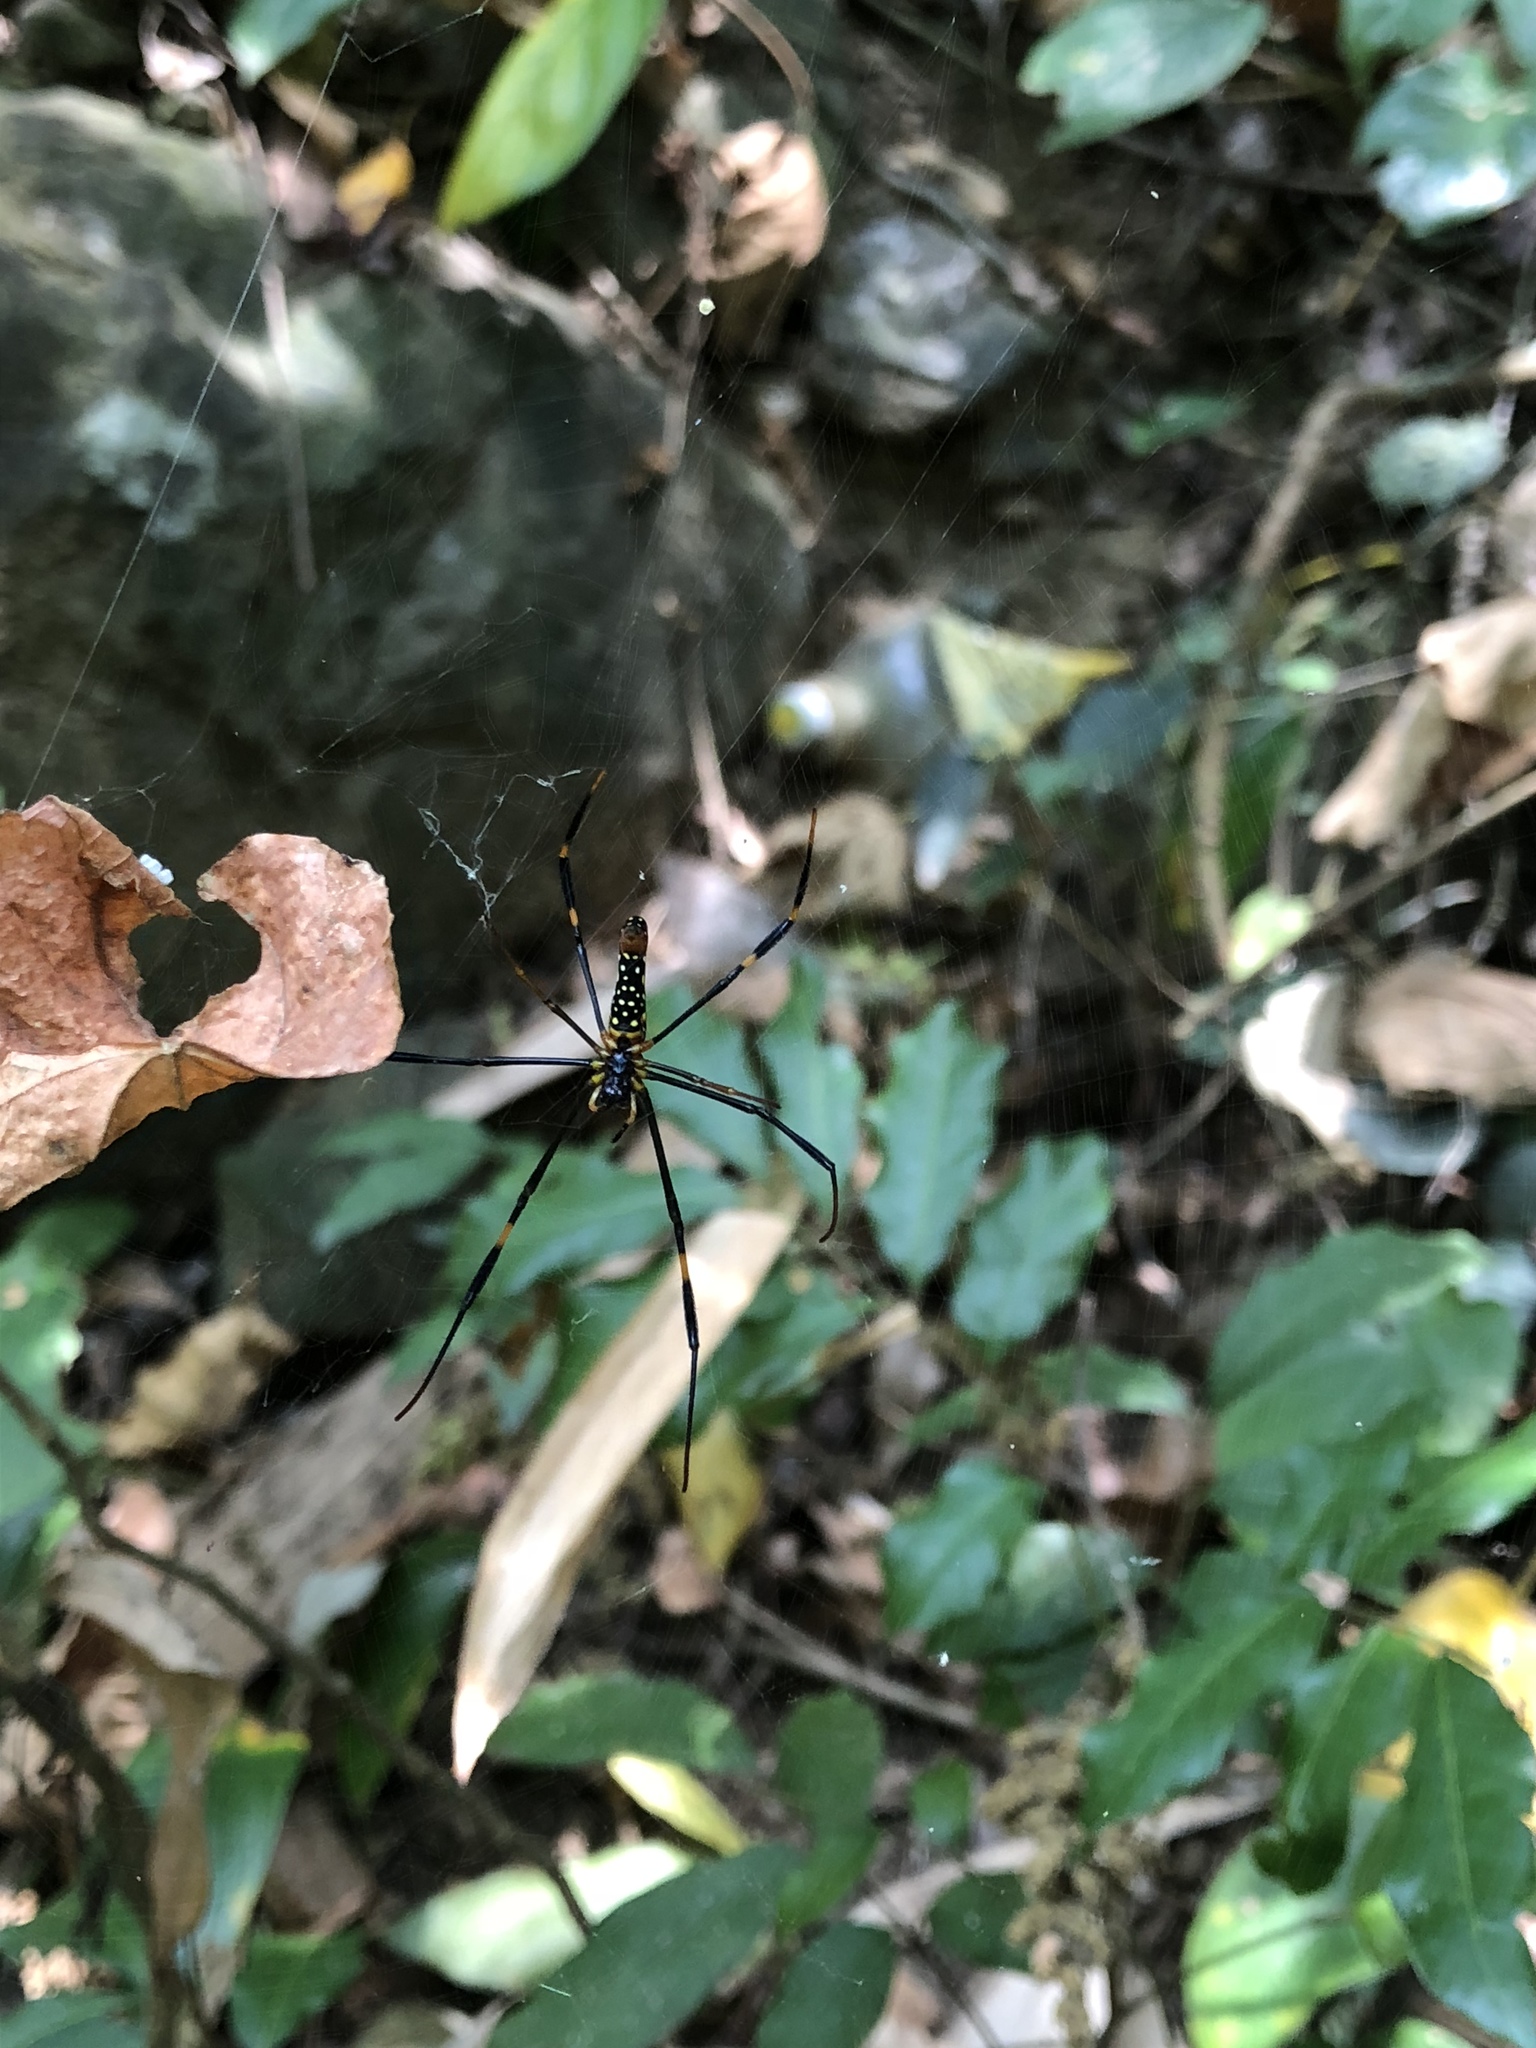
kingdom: Animalia
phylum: Arthropoda
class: Arachnida
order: Araneae
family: Araneidae
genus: Nephila
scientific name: Nephila pilipes
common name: Giant golden orb weaver
